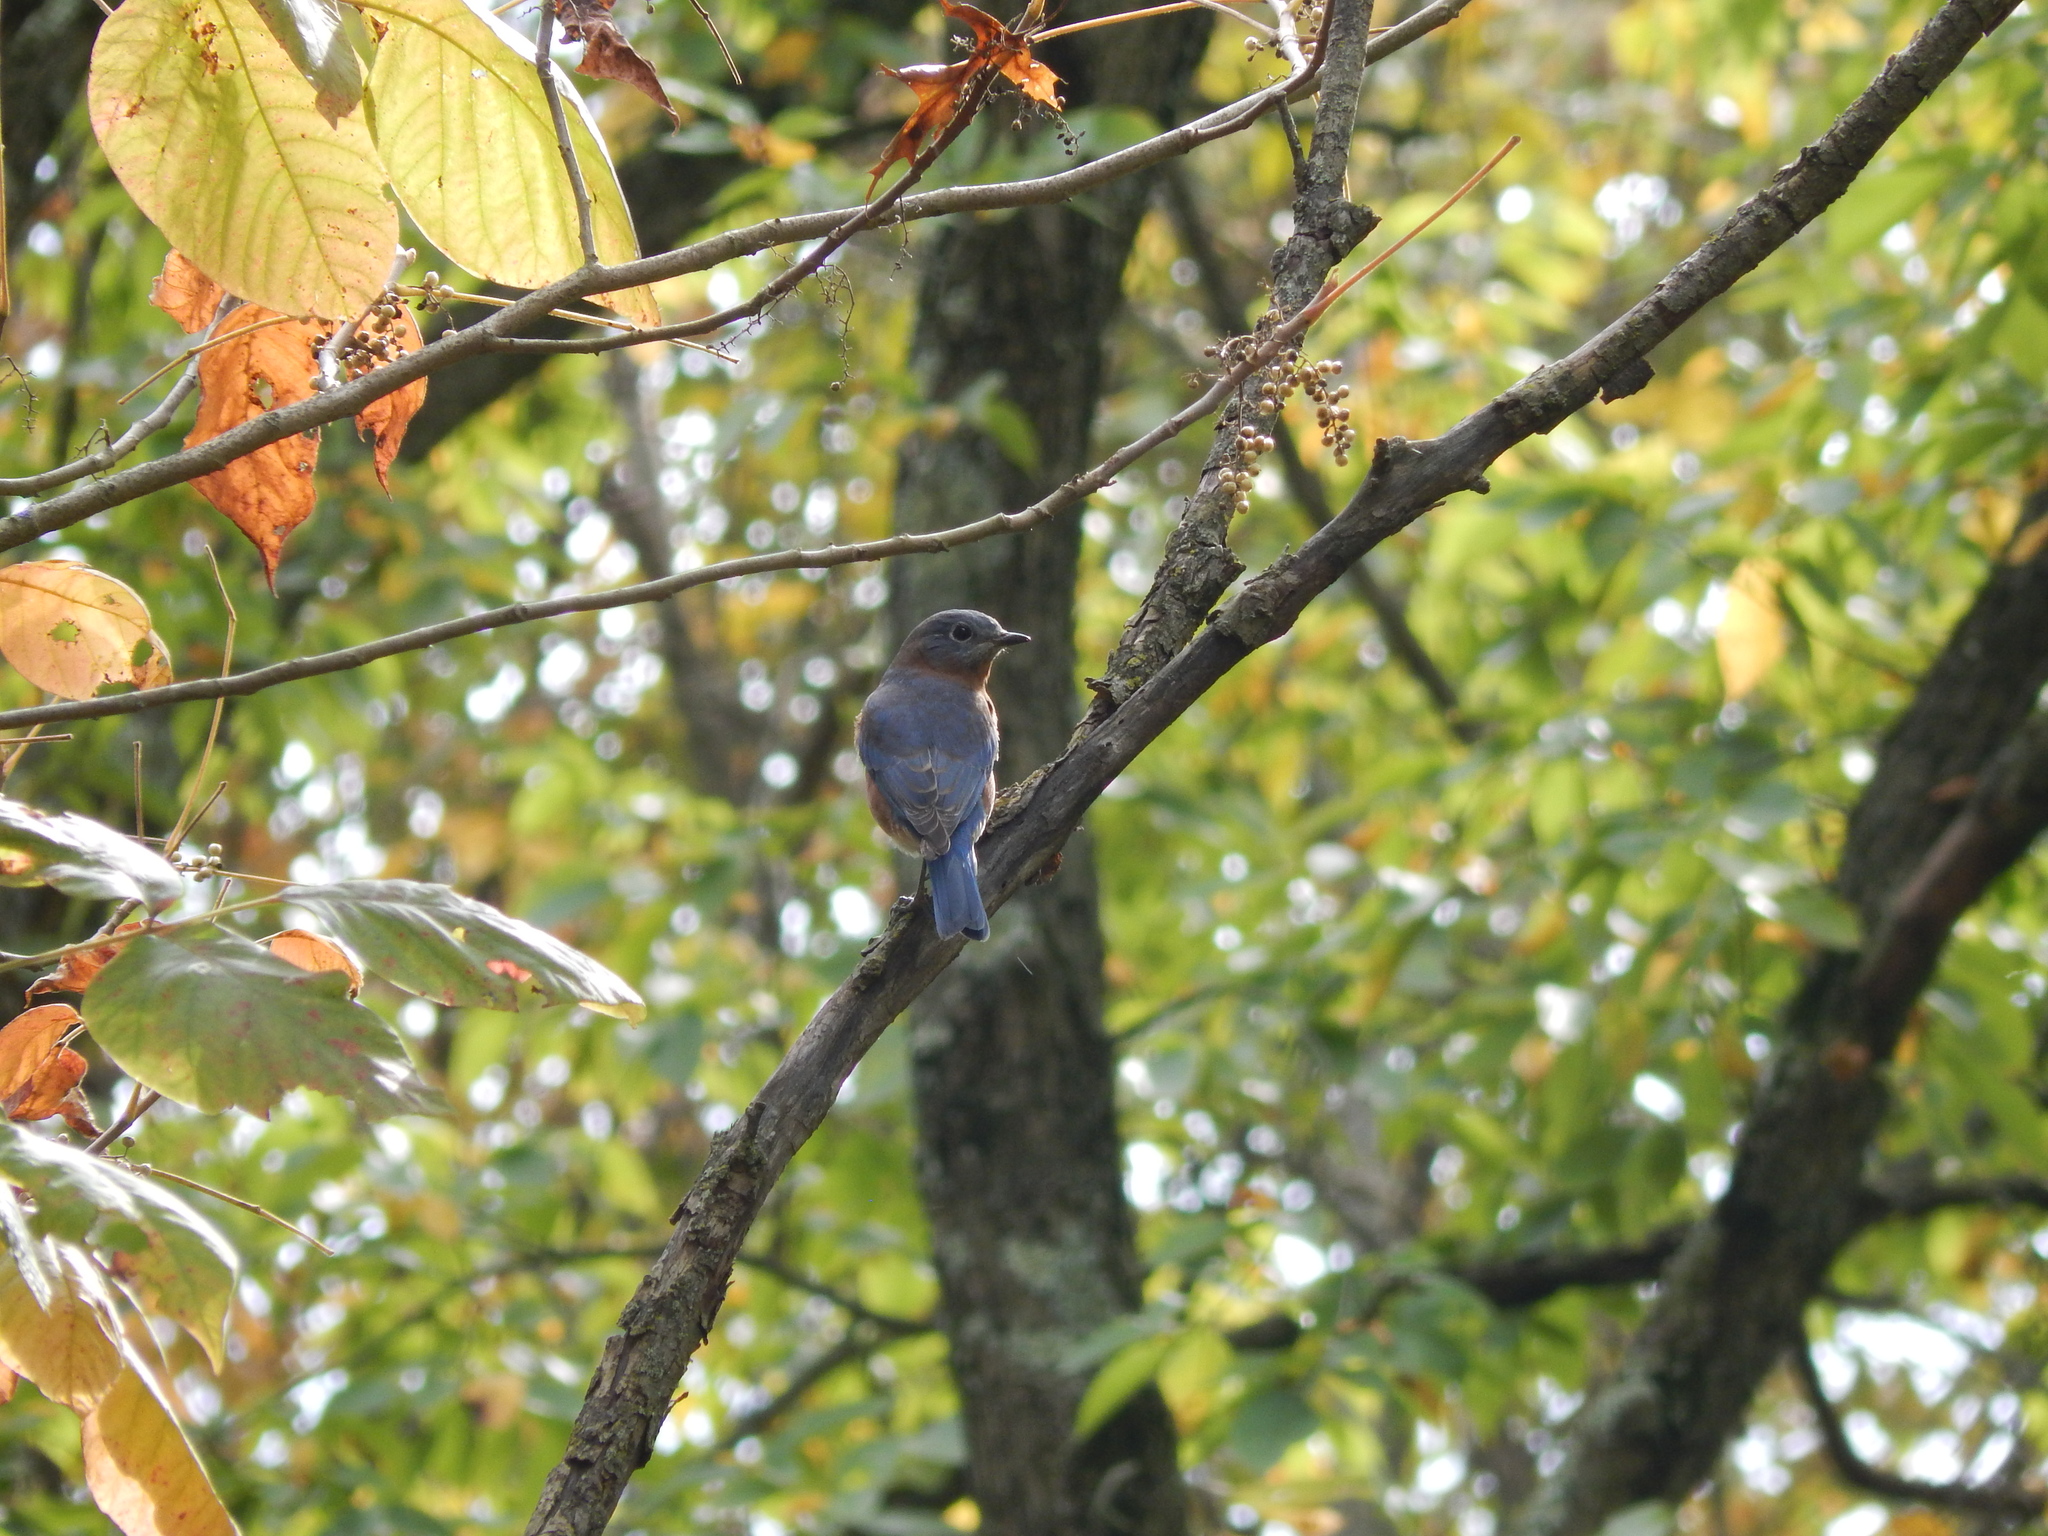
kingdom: Animalia
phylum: Chordata
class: Aves
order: Passeriformes
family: Turdidae
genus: Sialia
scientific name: Sialia sialis
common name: Eastern bluebird
